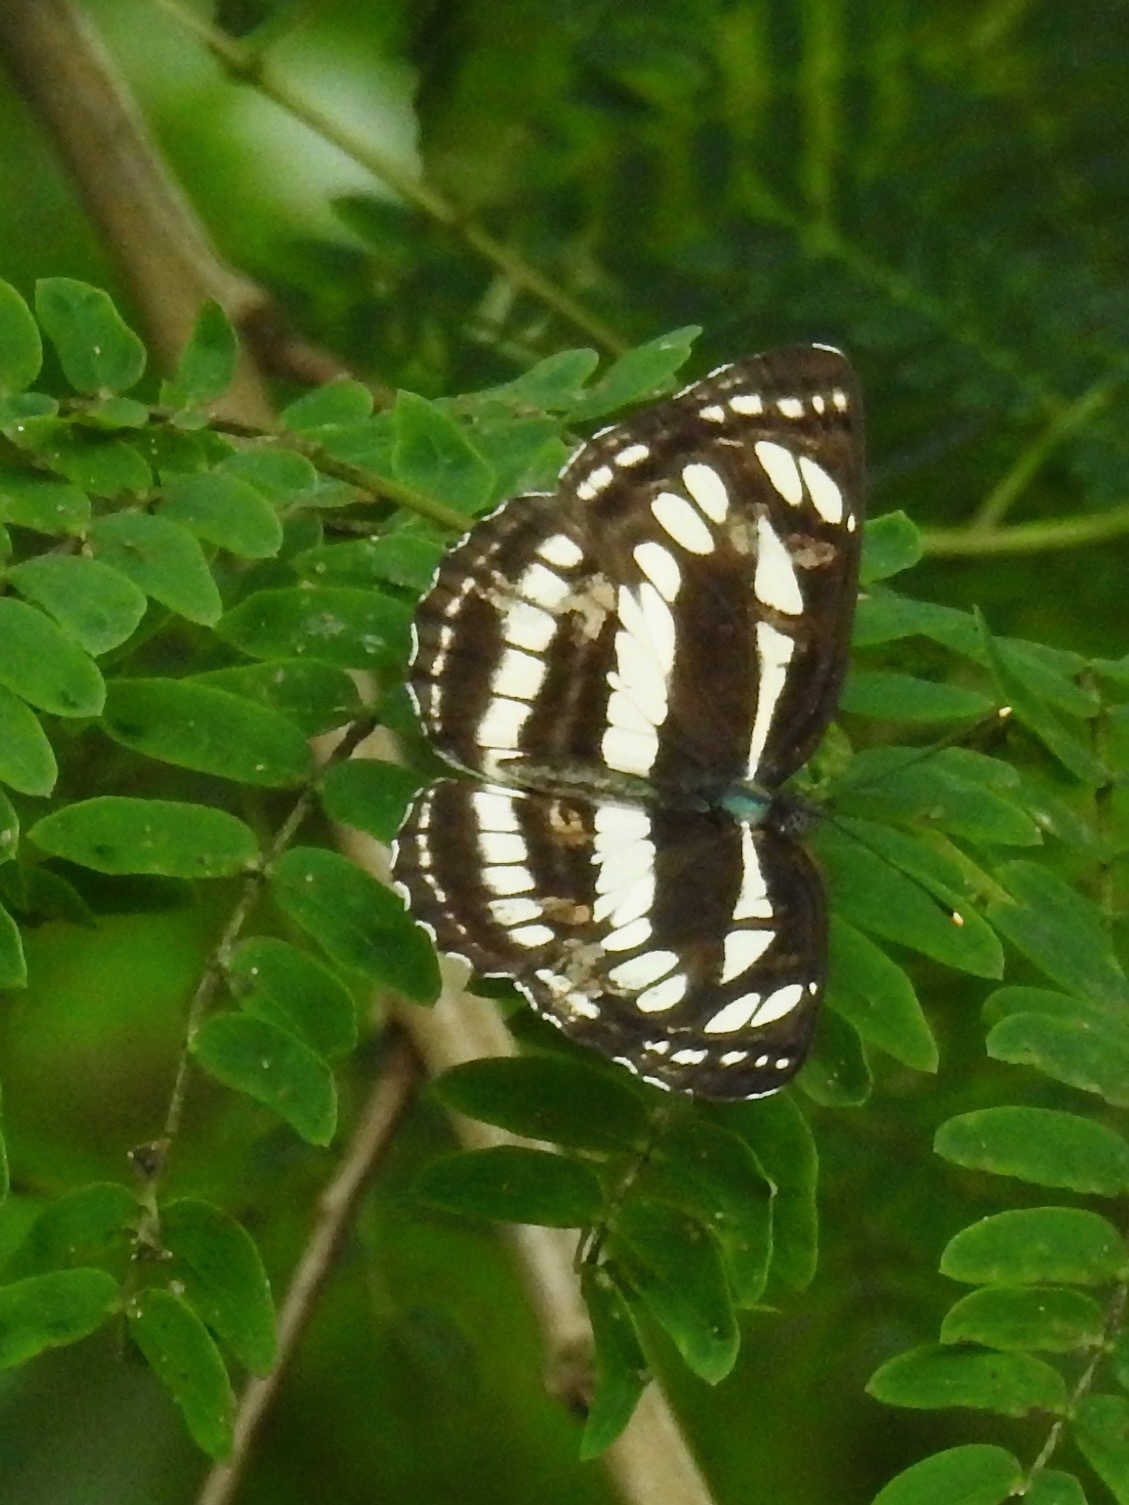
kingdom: Animalia
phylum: Arthropoda
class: Insecta
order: Lepidoptera
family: Nymphalidae
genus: Neptis
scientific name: Neptis hylas
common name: Common sailer
